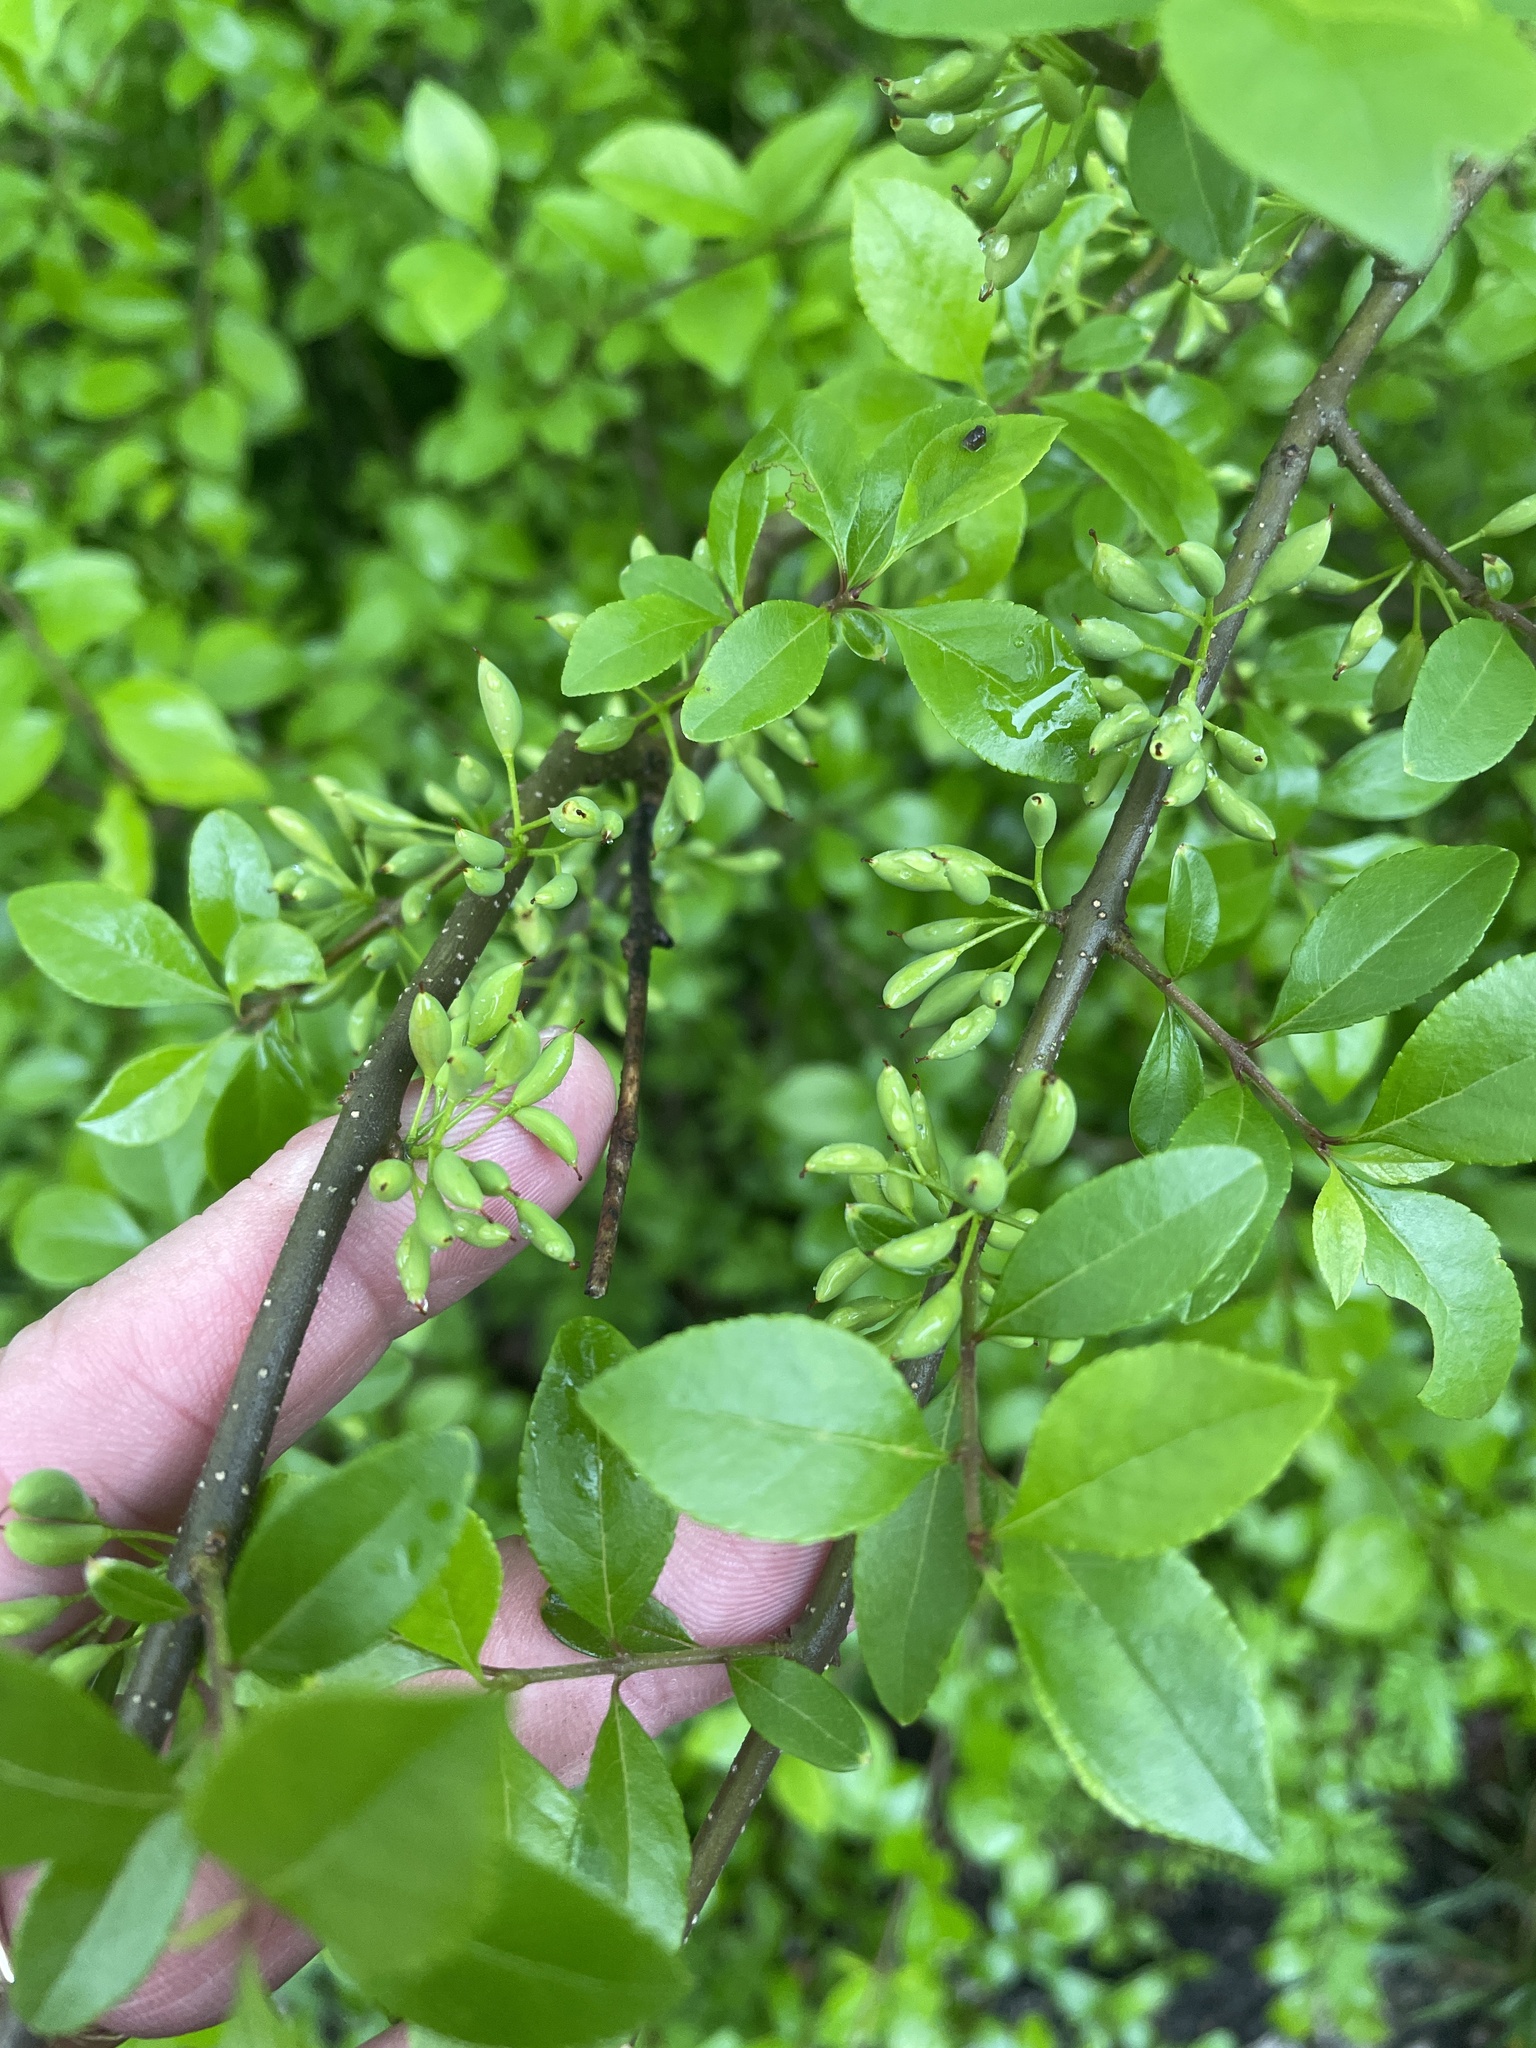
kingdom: Plantae
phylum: Tracheophyta
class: Magnoliopsida
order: Lamiales
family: Oleaceae
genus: Forestiera
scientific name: Forestiera pubescens
